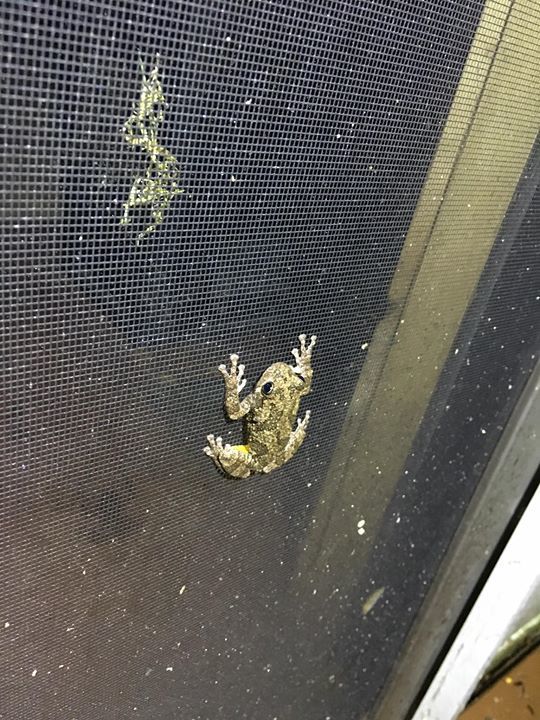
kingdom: Animalia
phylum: Chordata
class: Amphibia
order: Anura
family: Hylidae
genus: Dryophytes
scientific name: Dryophytes chrysoscelis
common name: Cope's gray treefrog
